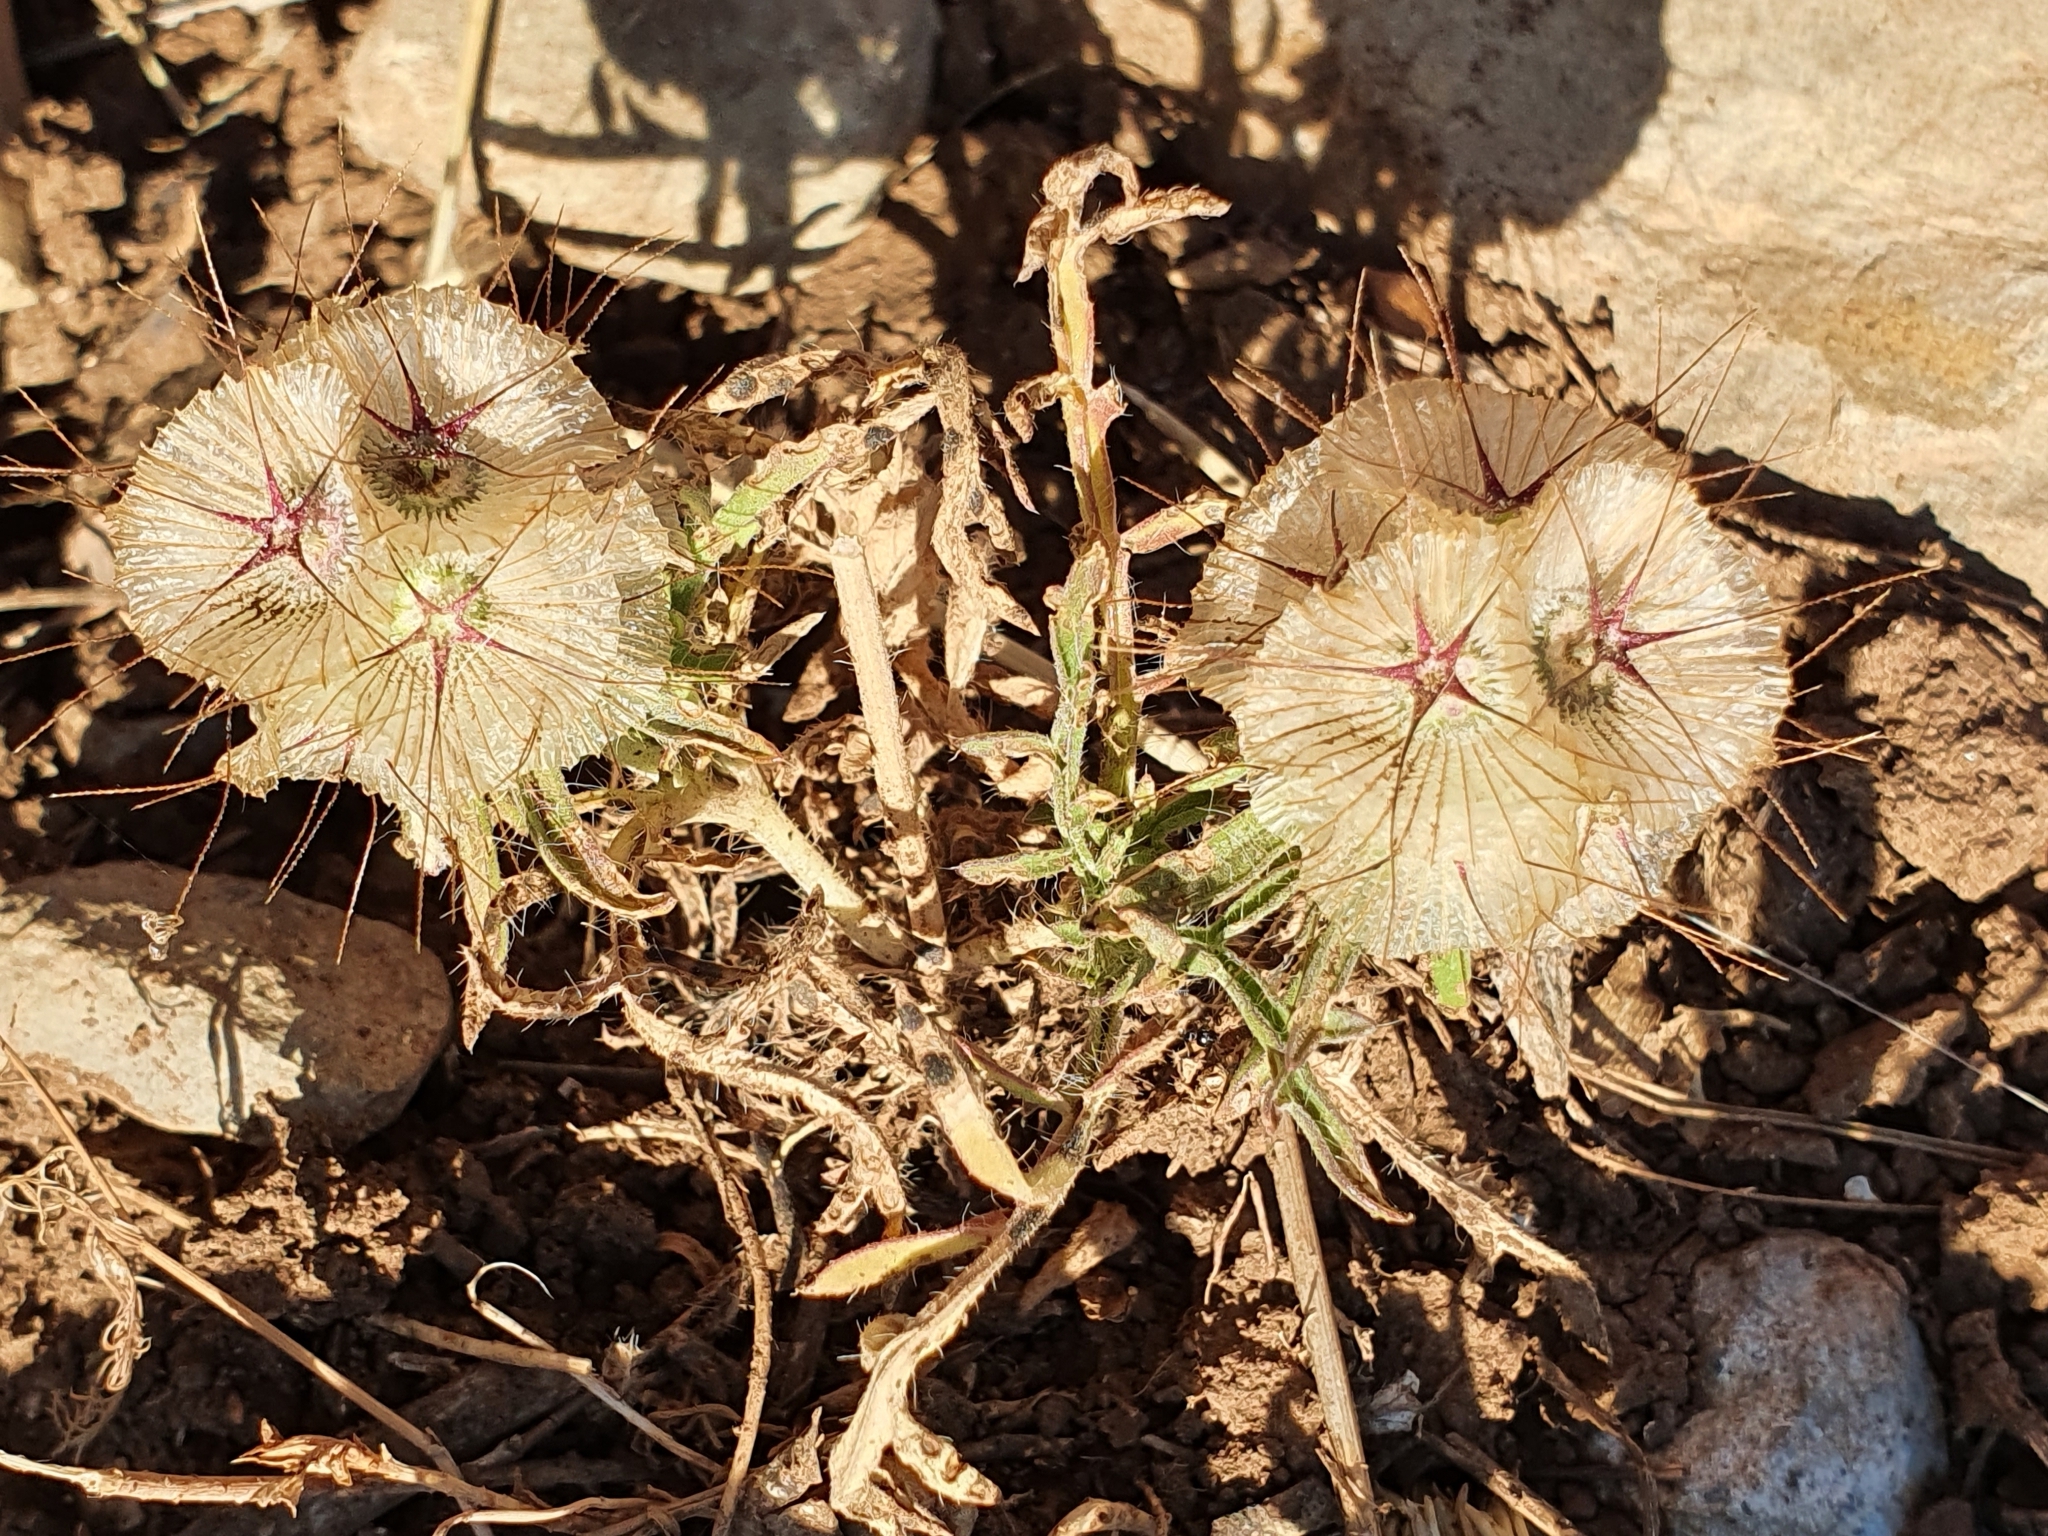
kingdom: Plantae
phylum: Tracheophyta
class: Magnoliopsida
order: Dipsacales
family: Caprifoliaceae
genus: Lomelosia
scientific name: Lomelosia stellata
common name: Teasel
